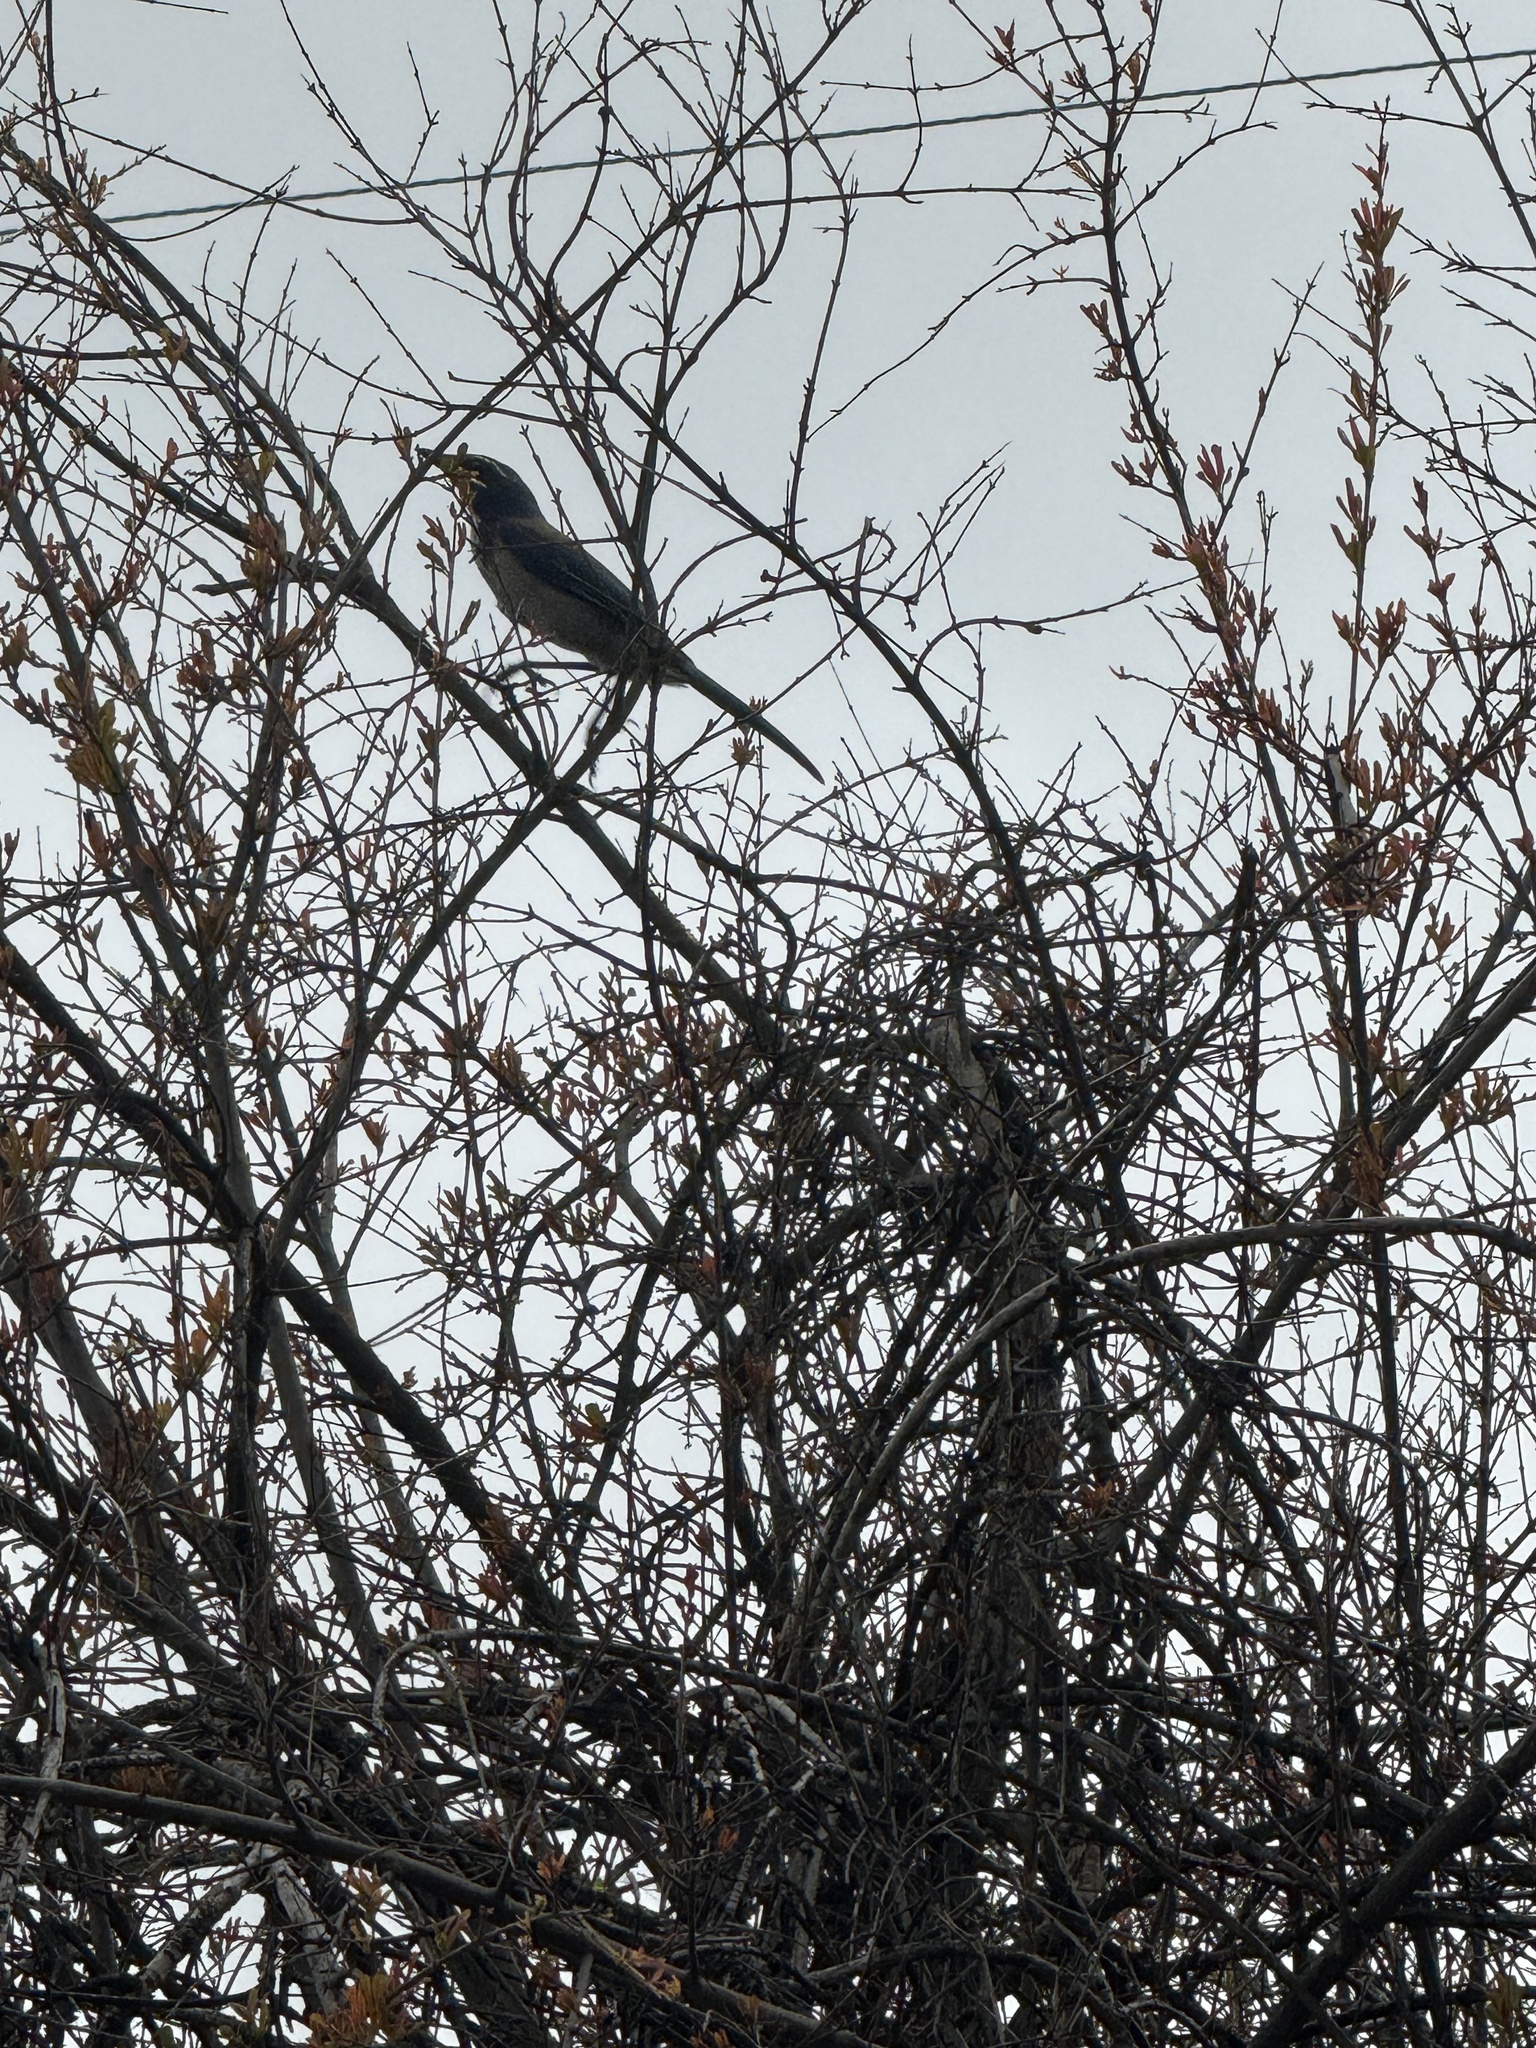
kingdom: Animalia
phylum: Chordata
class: Aves
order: Passeriformes
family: Corvidae
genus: Aphelocoma
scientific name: Aphelocoma californica
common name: California scrub-jay
